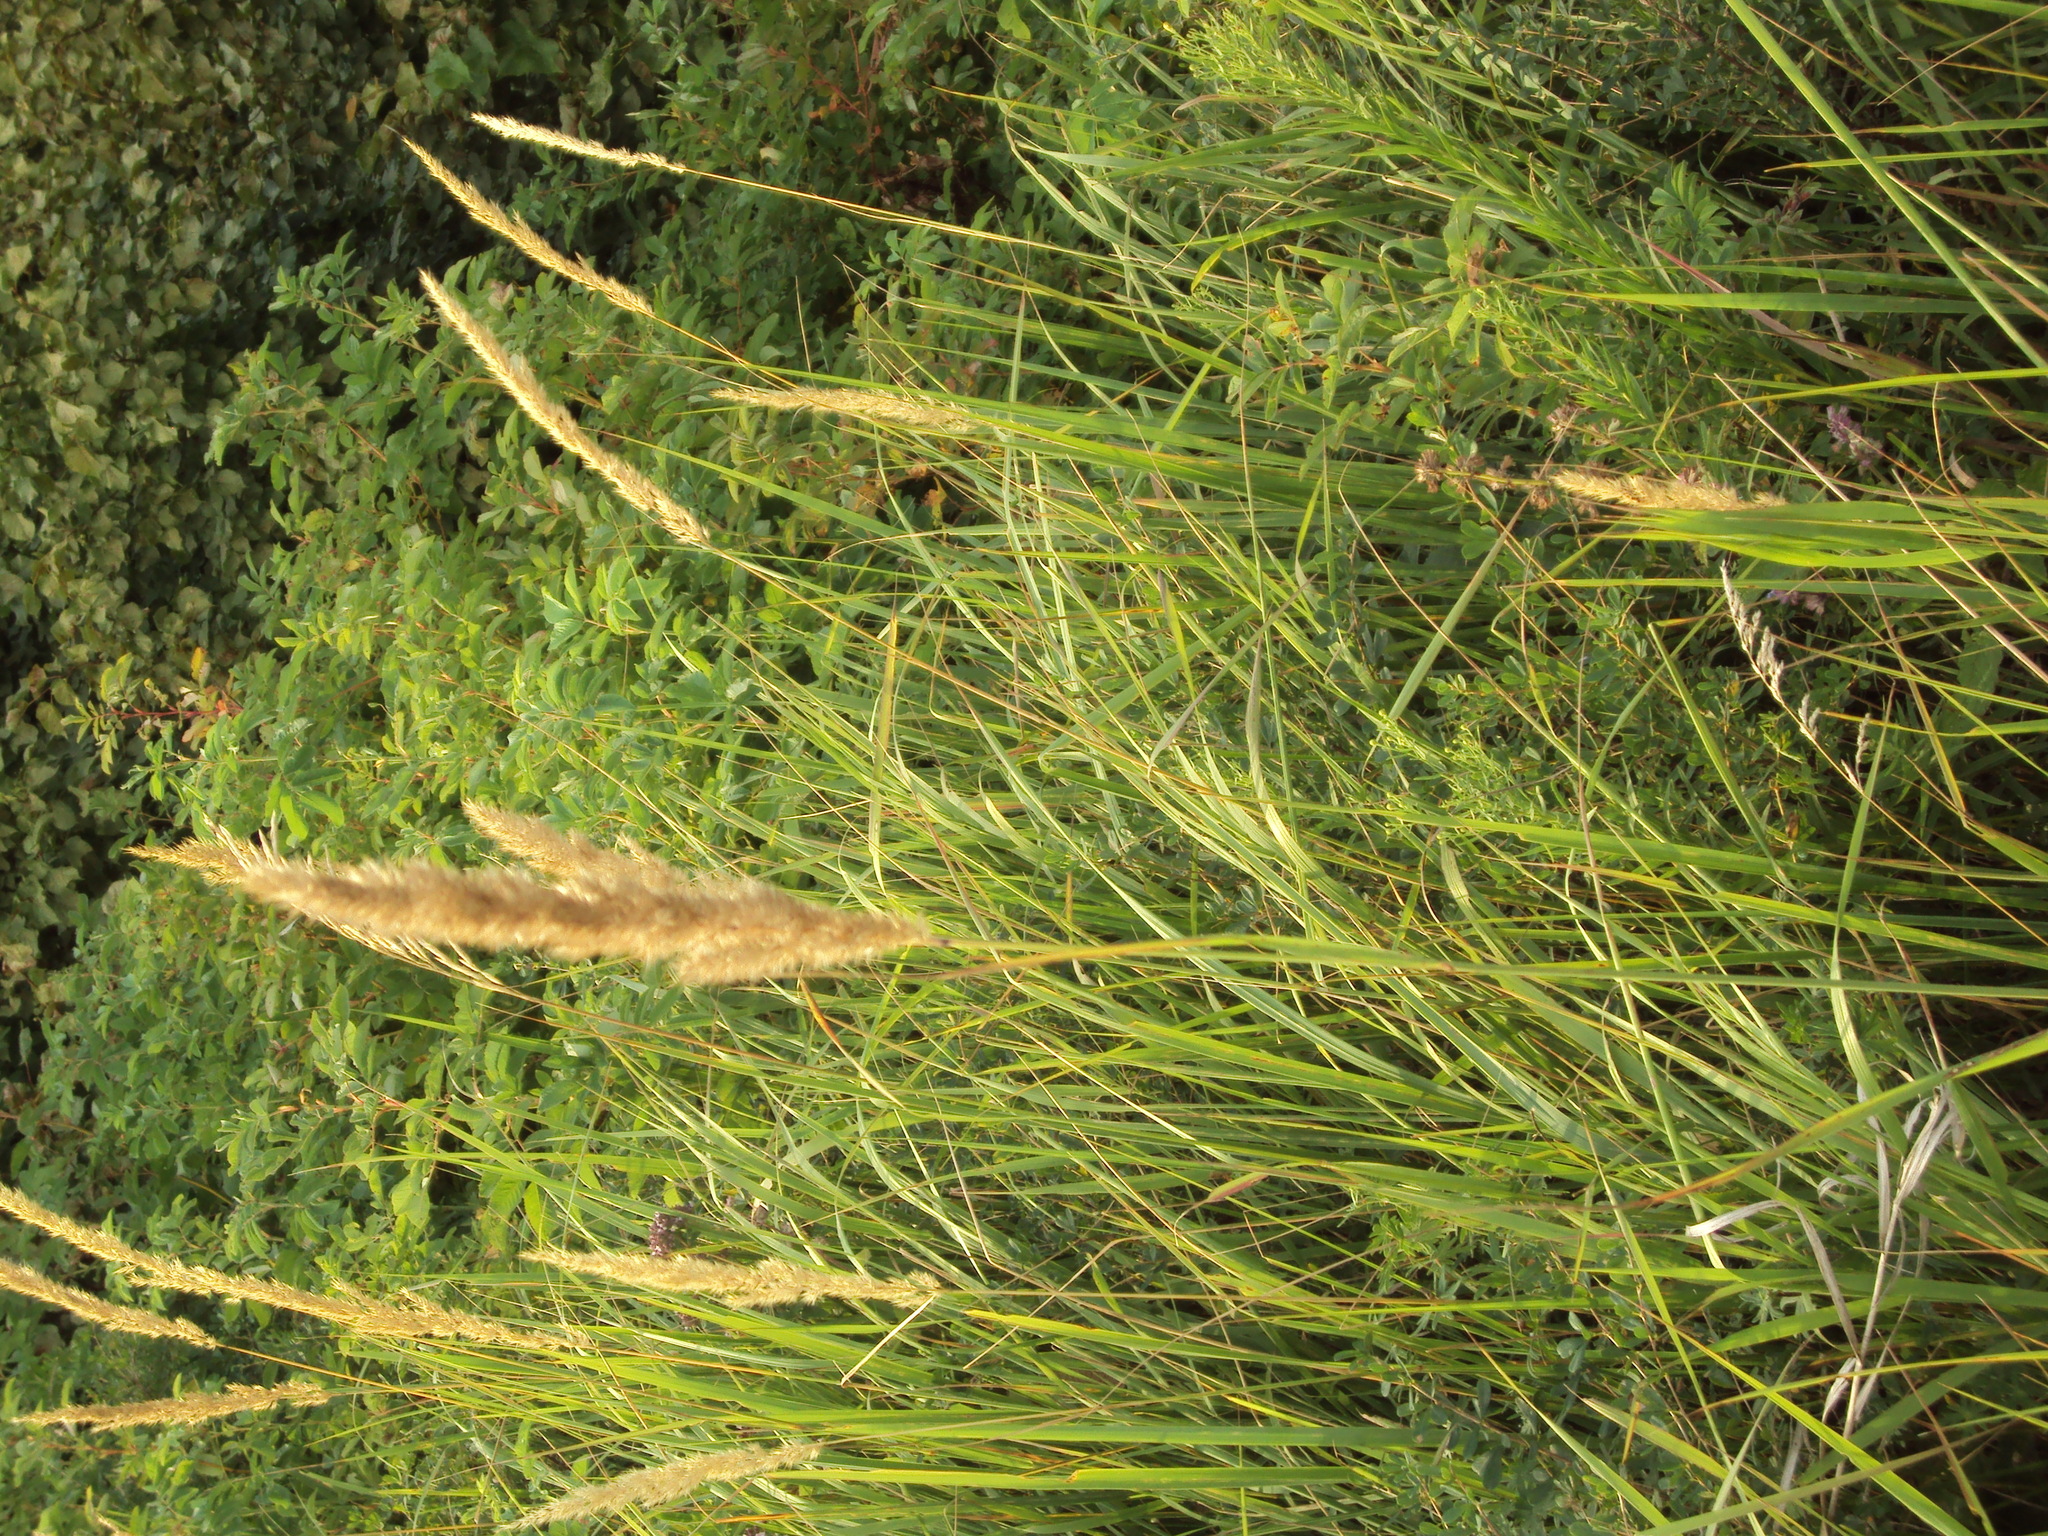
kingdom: Plantae
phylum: Tracheophyta
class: Liliopsida
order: Poales
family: Poaceae
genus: Calamagrostis
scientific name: Calamagrostis epigejos
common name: Wood small-reed
